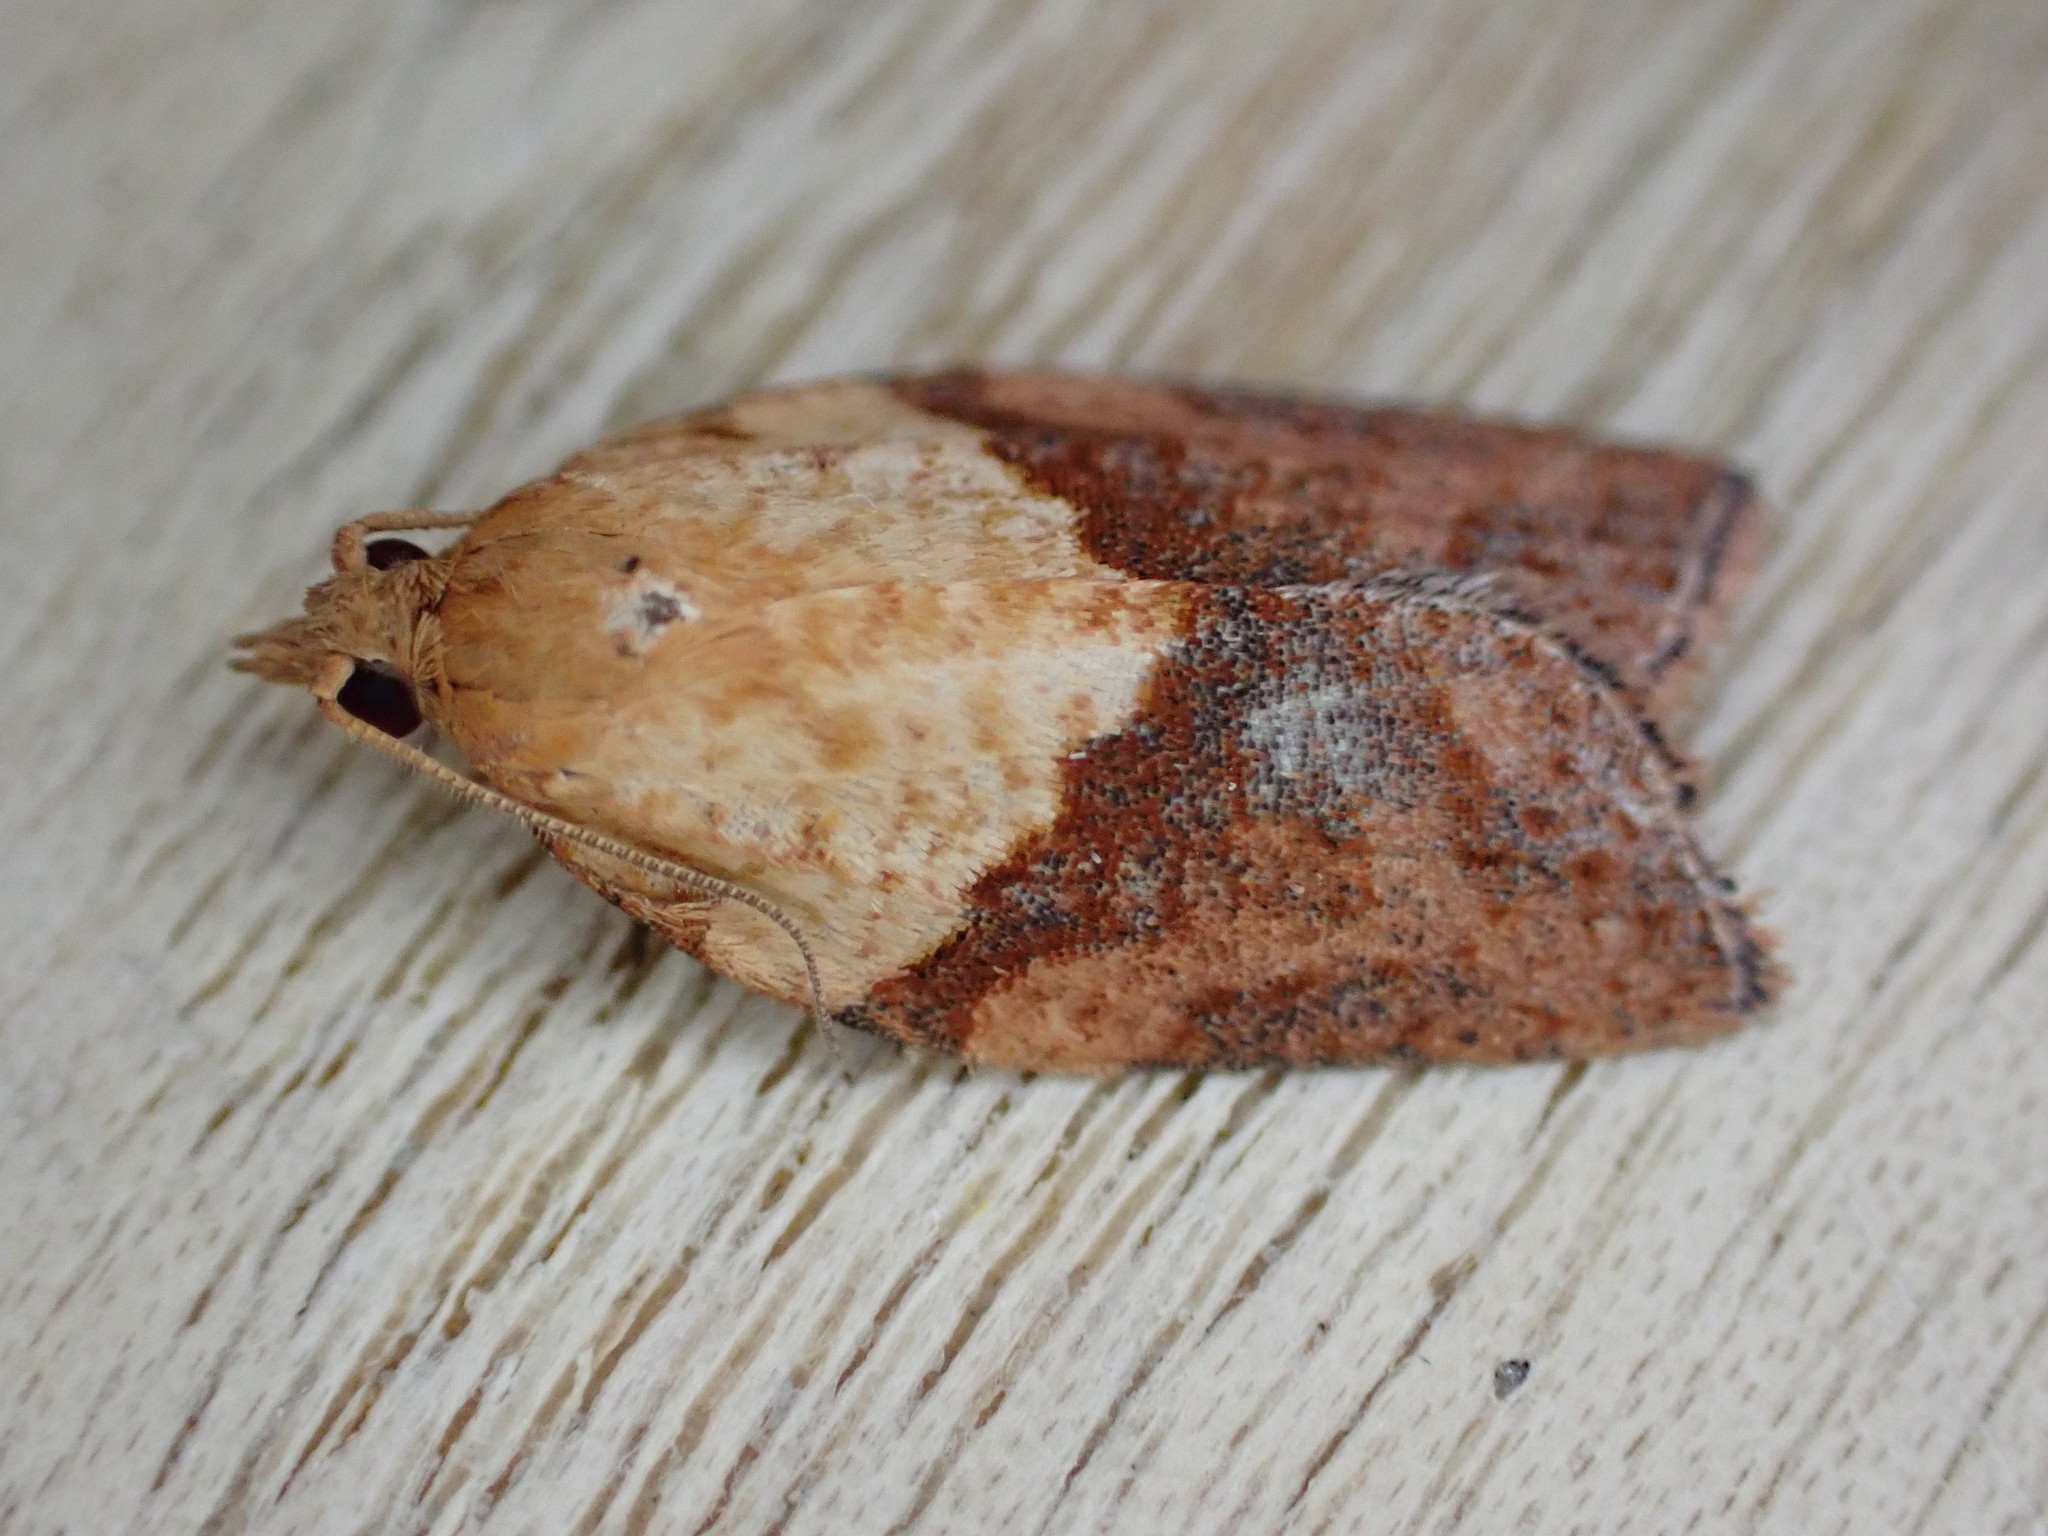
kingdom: Animalia
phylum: Arthropoda
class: Insecta
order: Lepidoptera
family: Tortricidae
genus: Epiphyas
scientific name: Epiphyas postvittana
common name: Light brown apple moth
